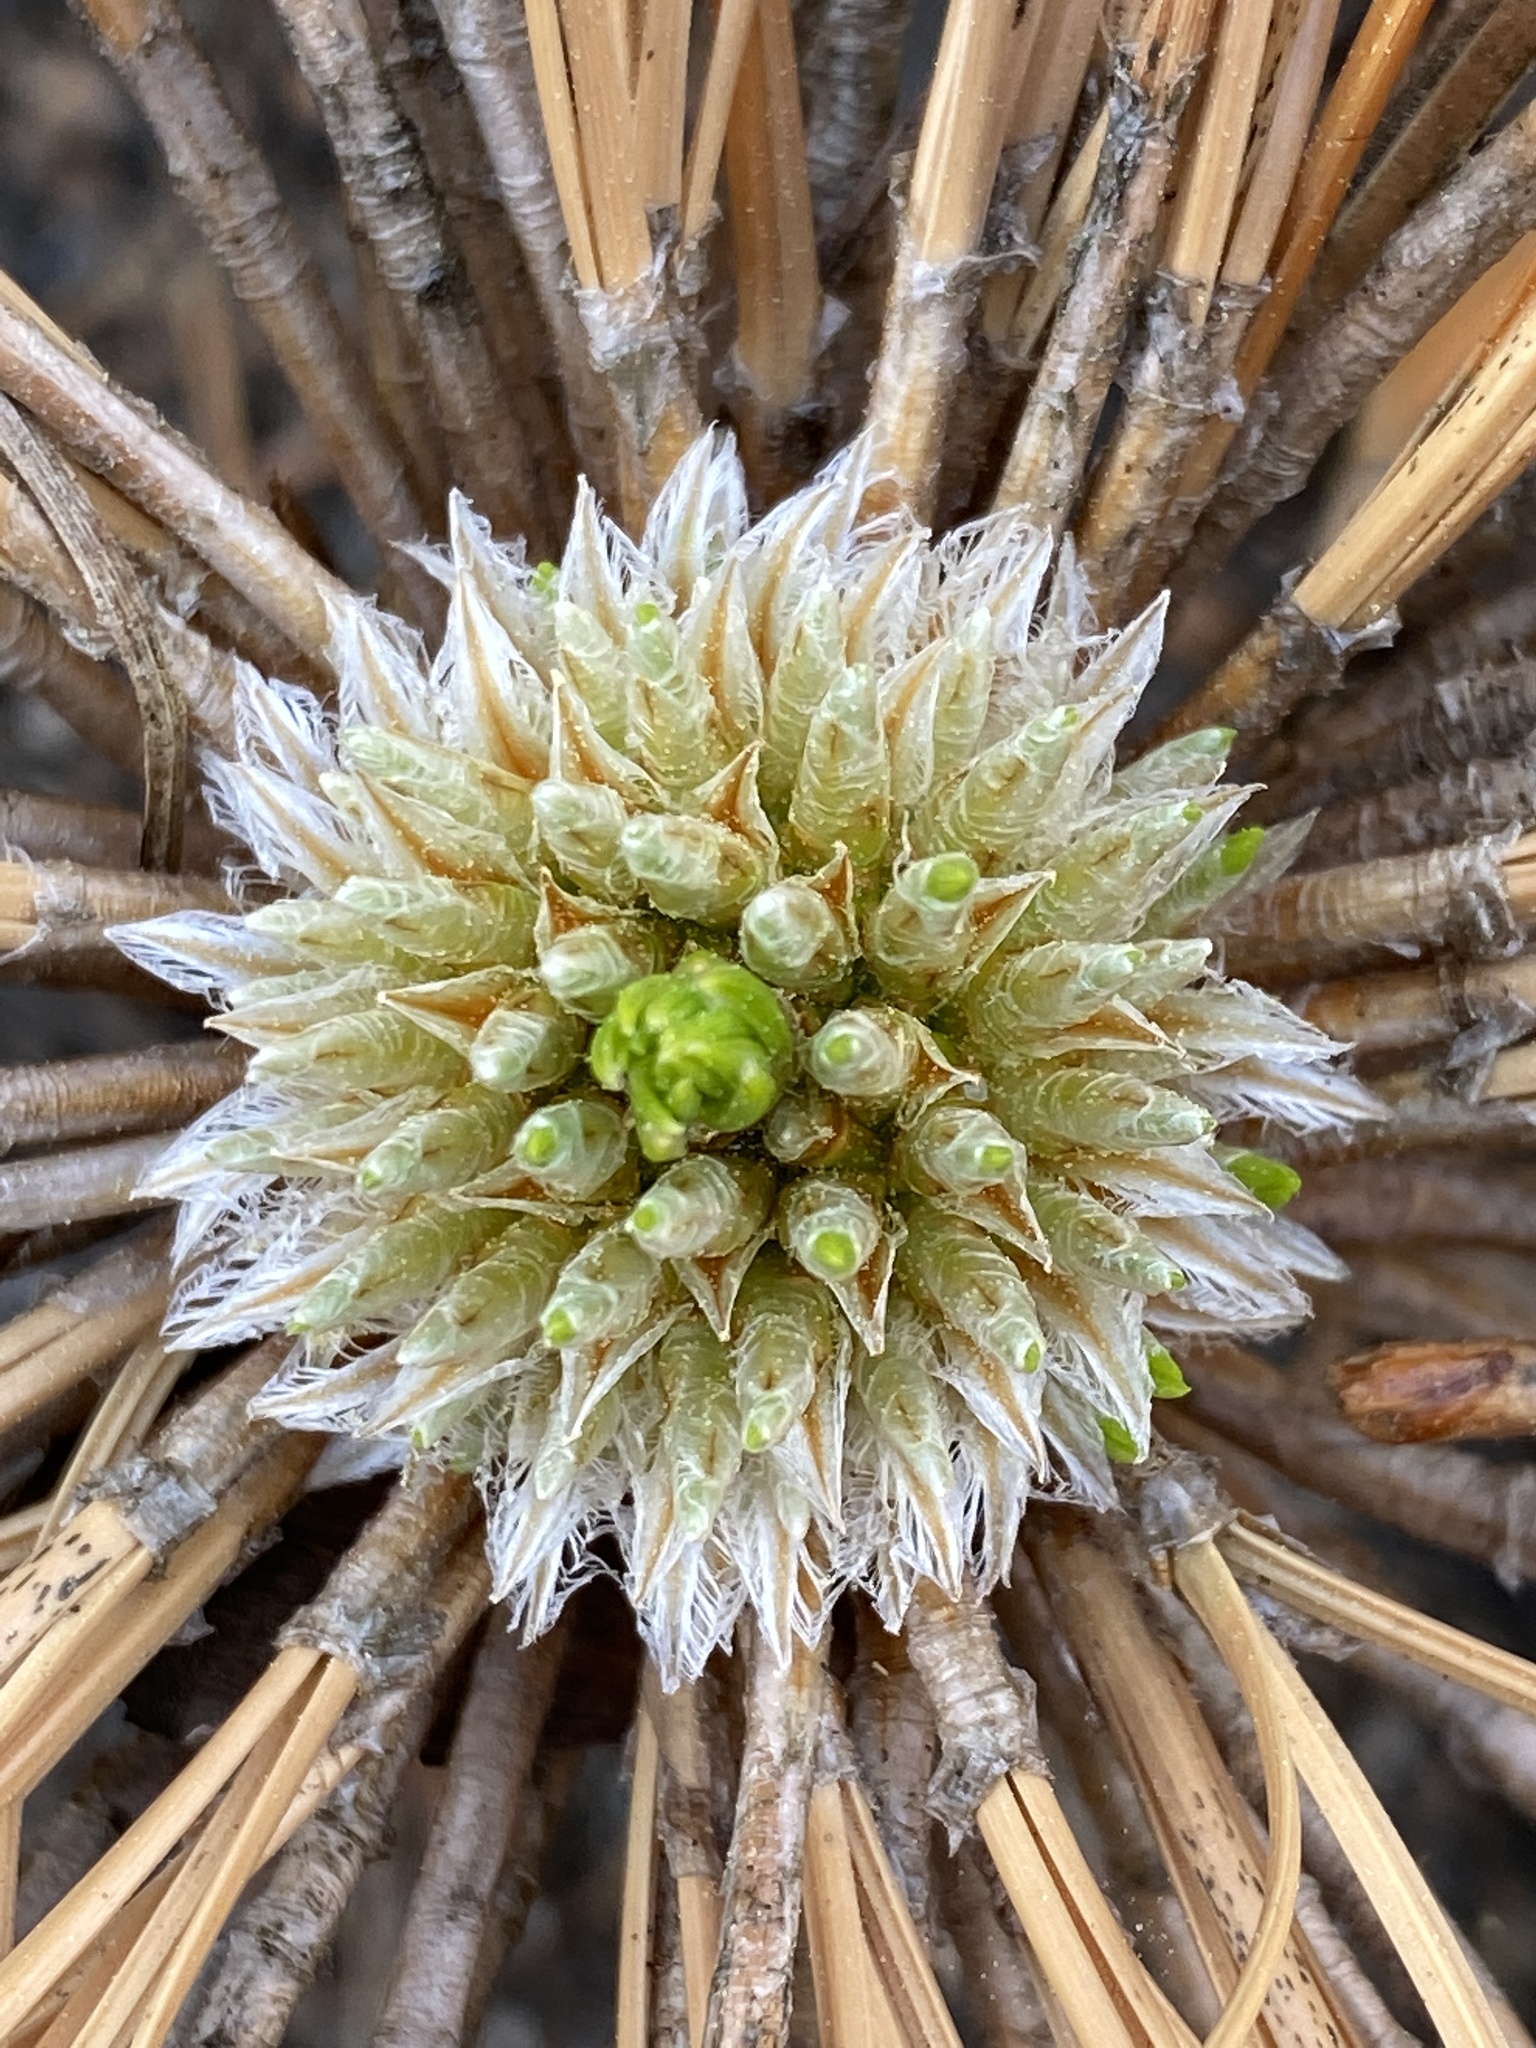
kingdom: Plantae
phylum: Tracheophyta
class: Pinopsida
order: Pinales
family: Pinaceae
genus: Pinus
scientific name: Pinus palustris
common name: Longleaf pine
